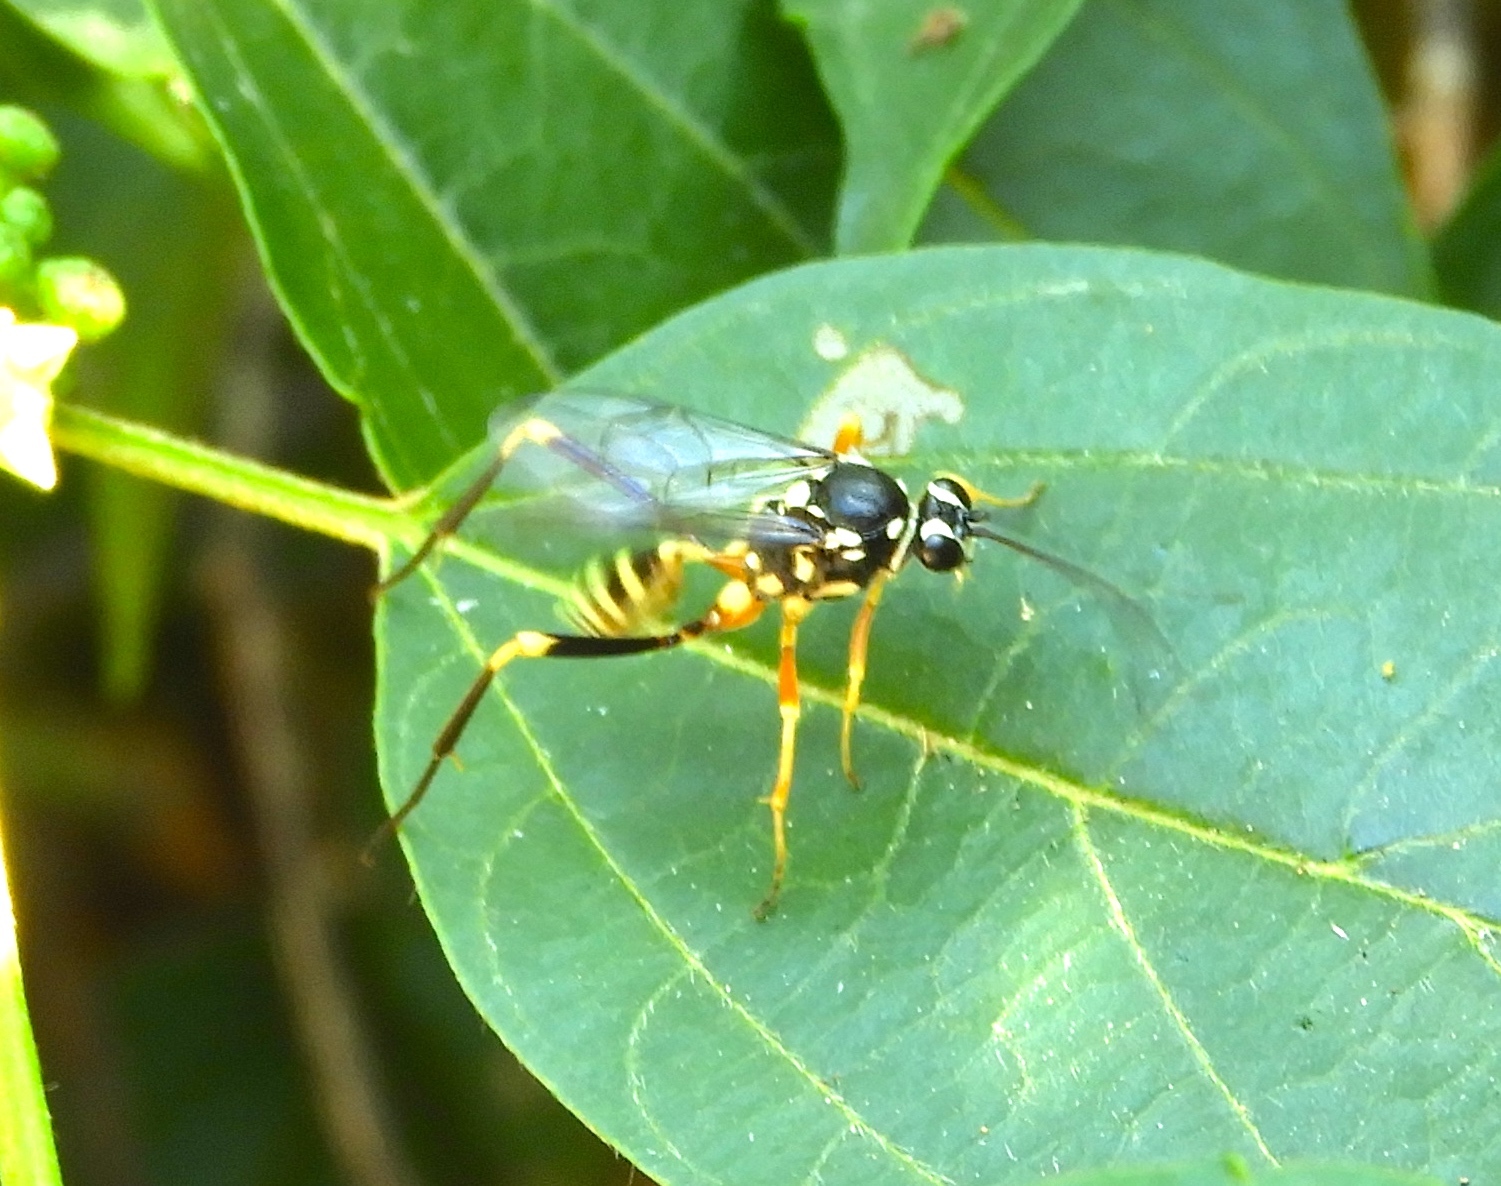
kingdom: Animalia
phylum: Arthropoda
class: Insecta
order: Hymenoptera
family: Ichneumonidae
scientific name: Ichneumonidae
